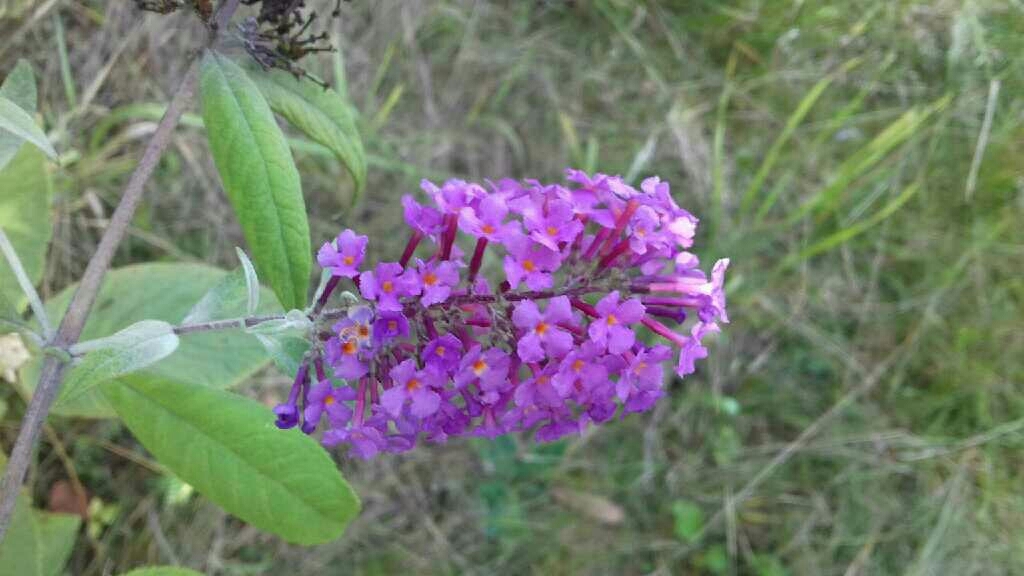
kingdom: Plantae
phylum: Tracheophyta
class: Magnoliopsida
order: Lamiales
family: Scrophulariaceae
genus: Buddleja
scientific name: Buddleja davidii
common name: Butterfly-bush
